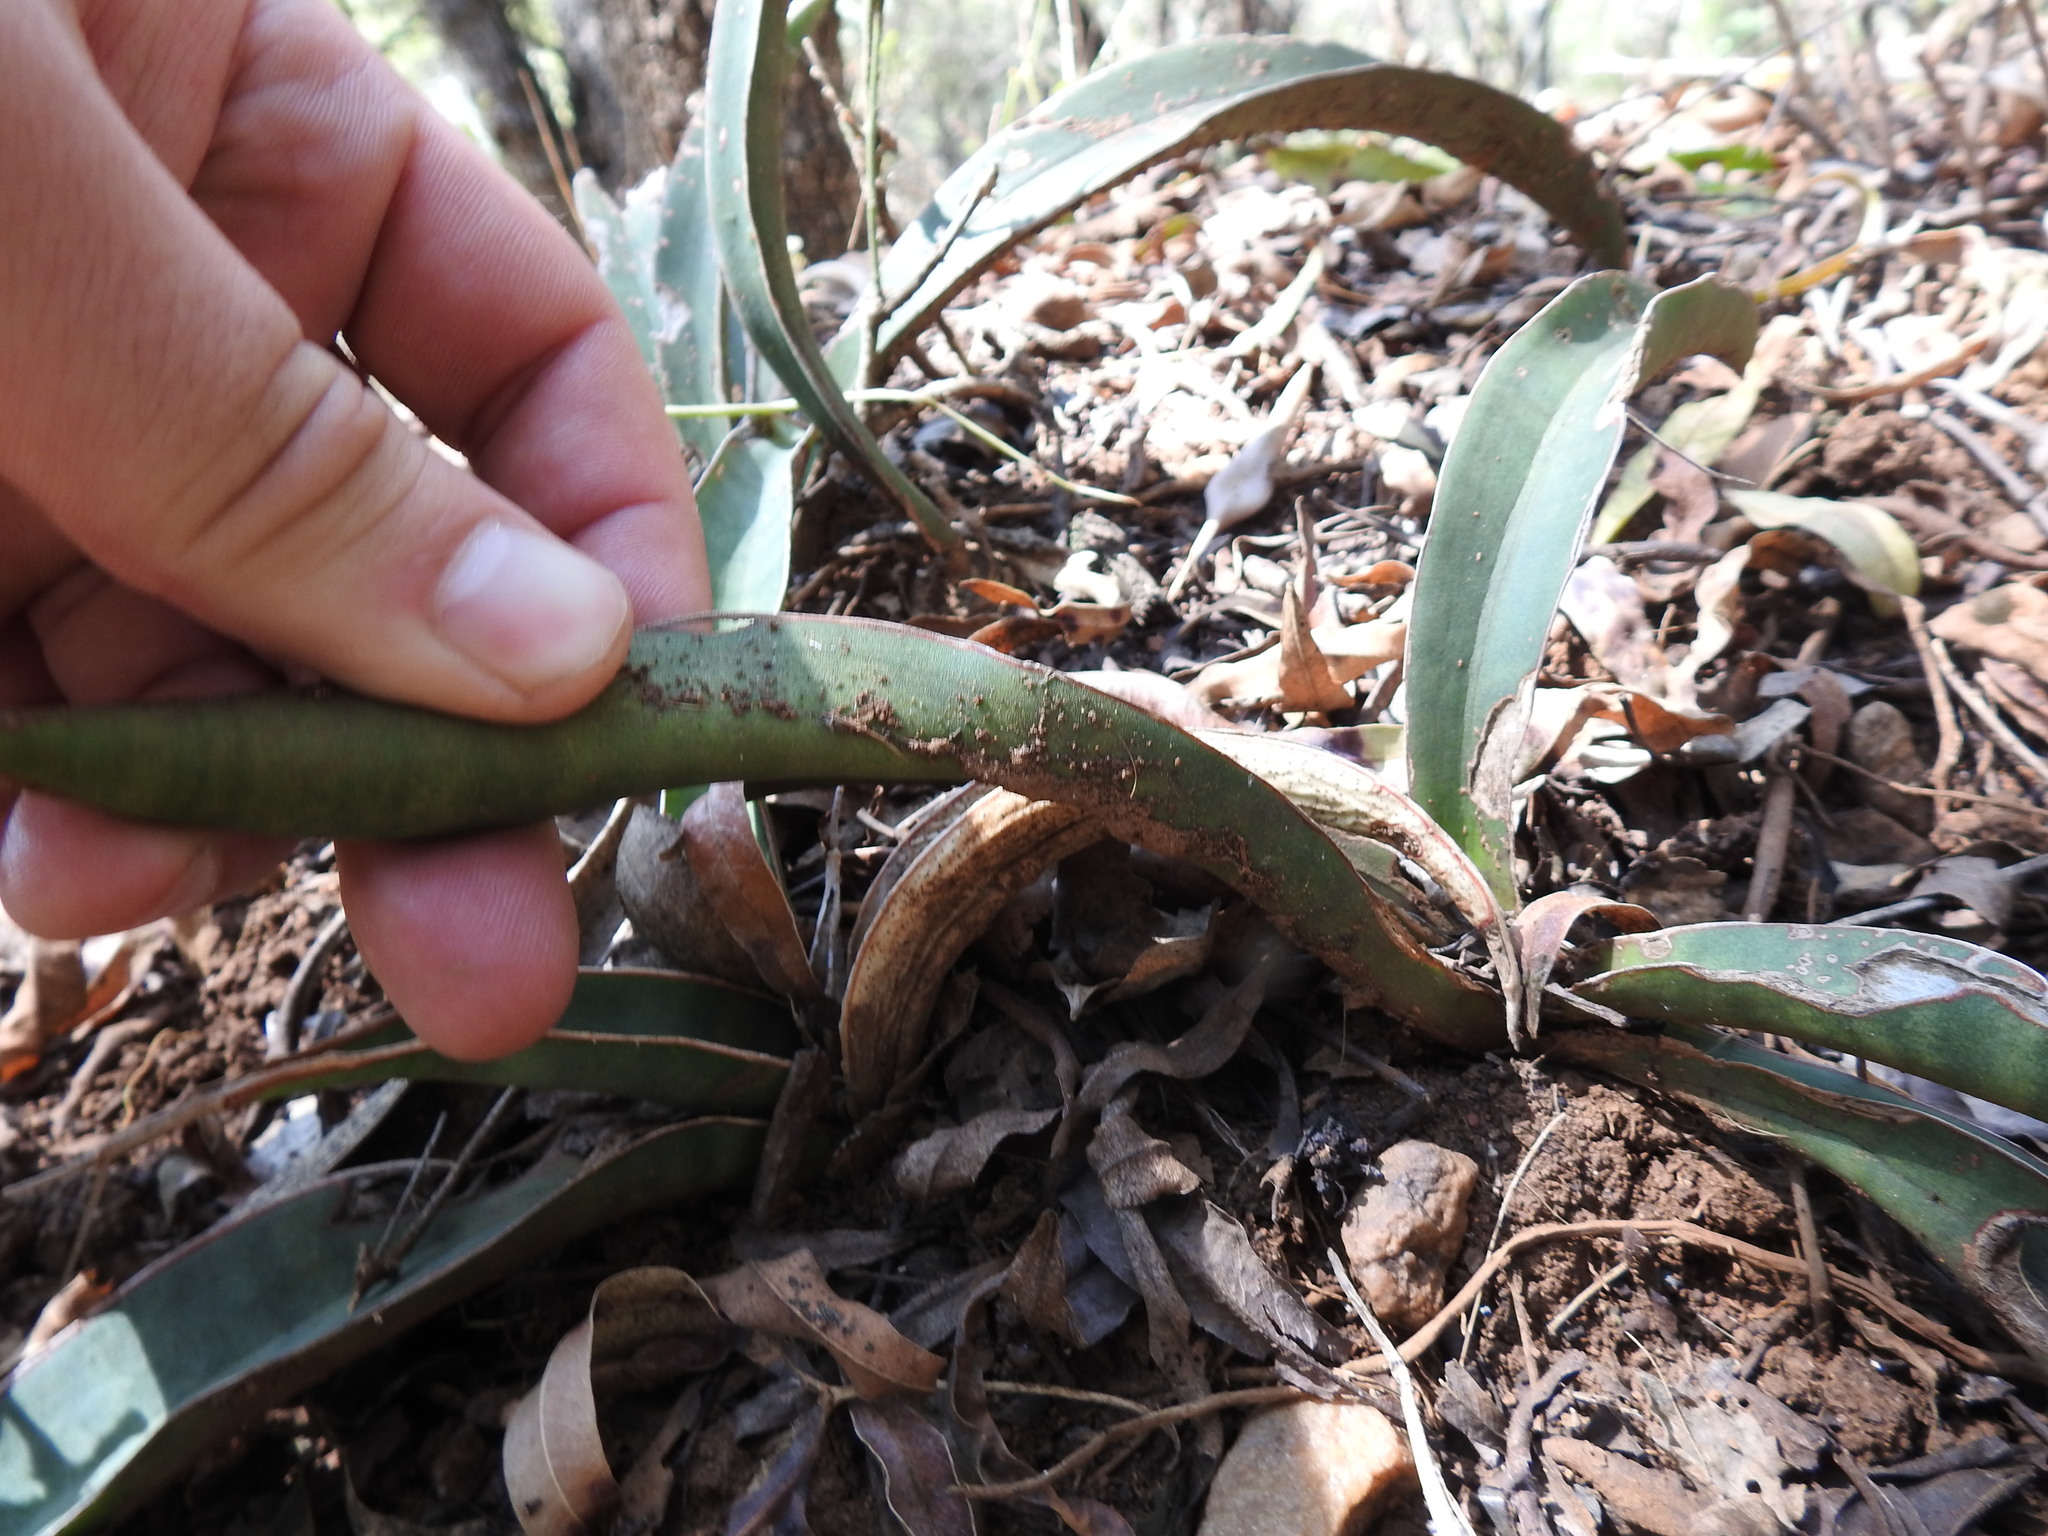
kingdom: Plantae
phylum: Tracheophyta
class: Liliopsida
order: Asparagales
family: Asparagaceae
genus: Dracaena
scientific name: Dracaena aethiopica
